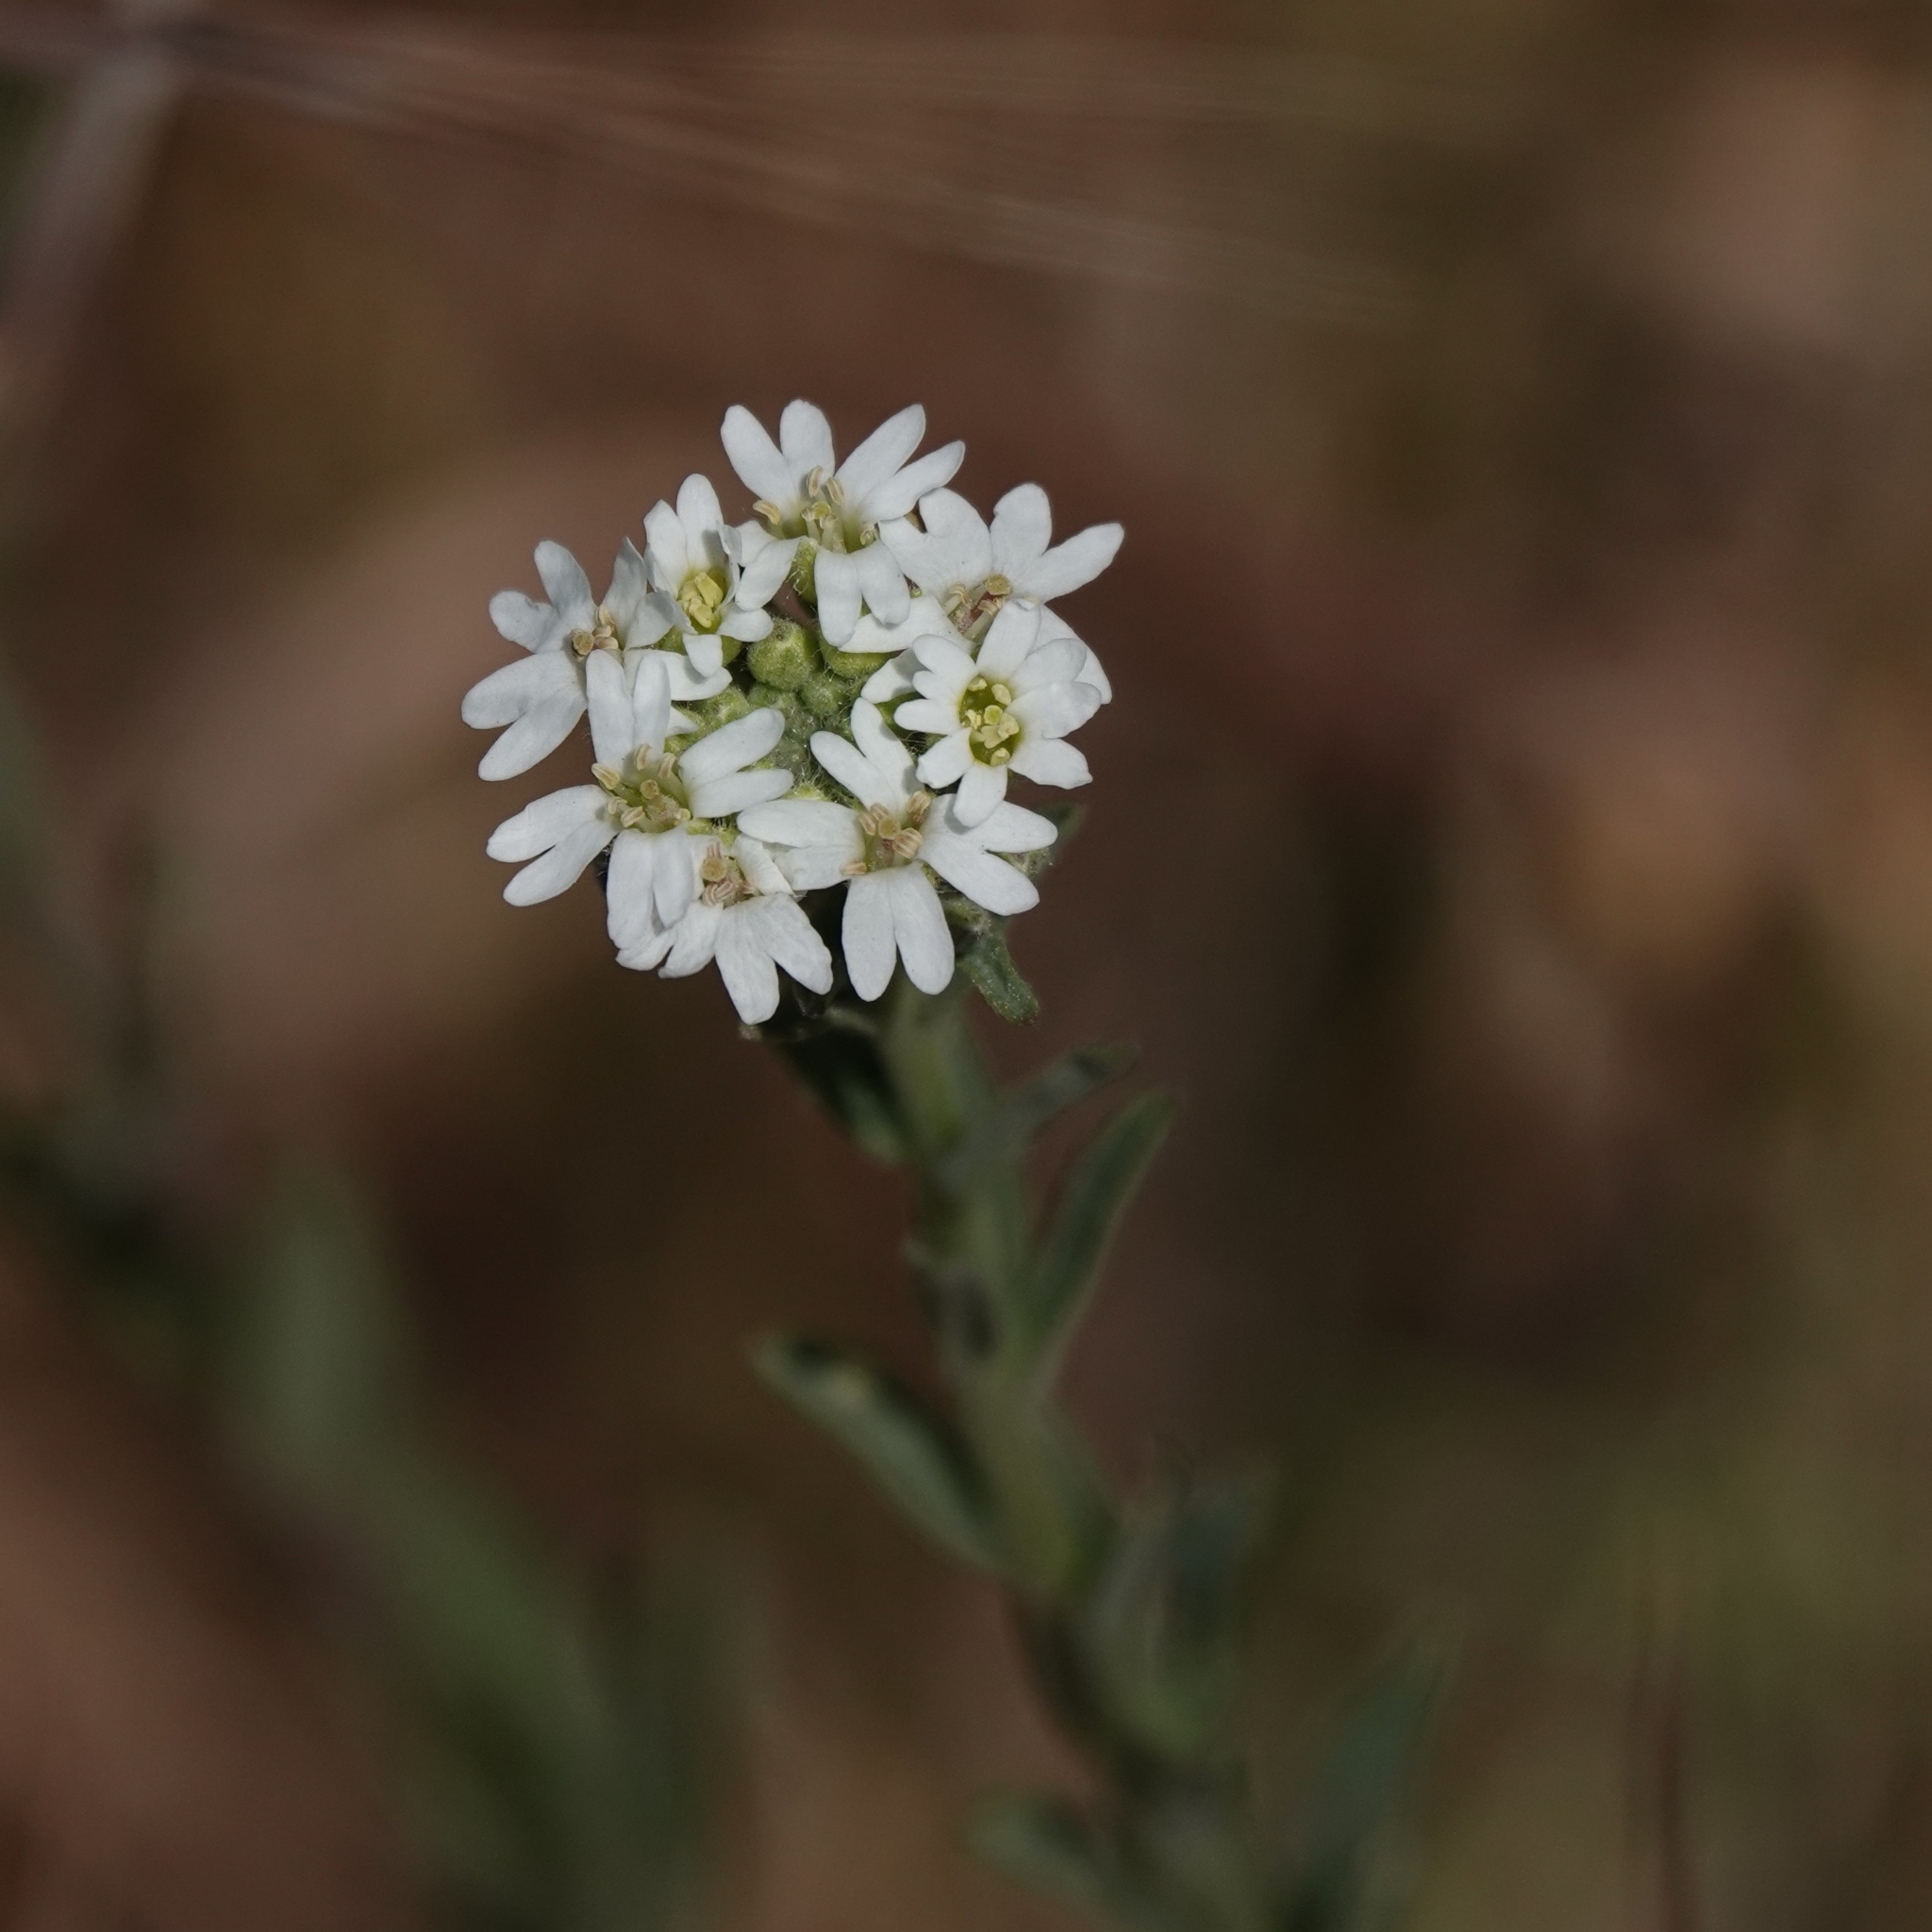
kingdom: Plantae
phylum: Tracheophyta
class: Magnoliopsida
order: Brassicales
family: Brassicaceae
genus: Berteroa
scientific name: Berteroa incana
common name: Hoary alison
